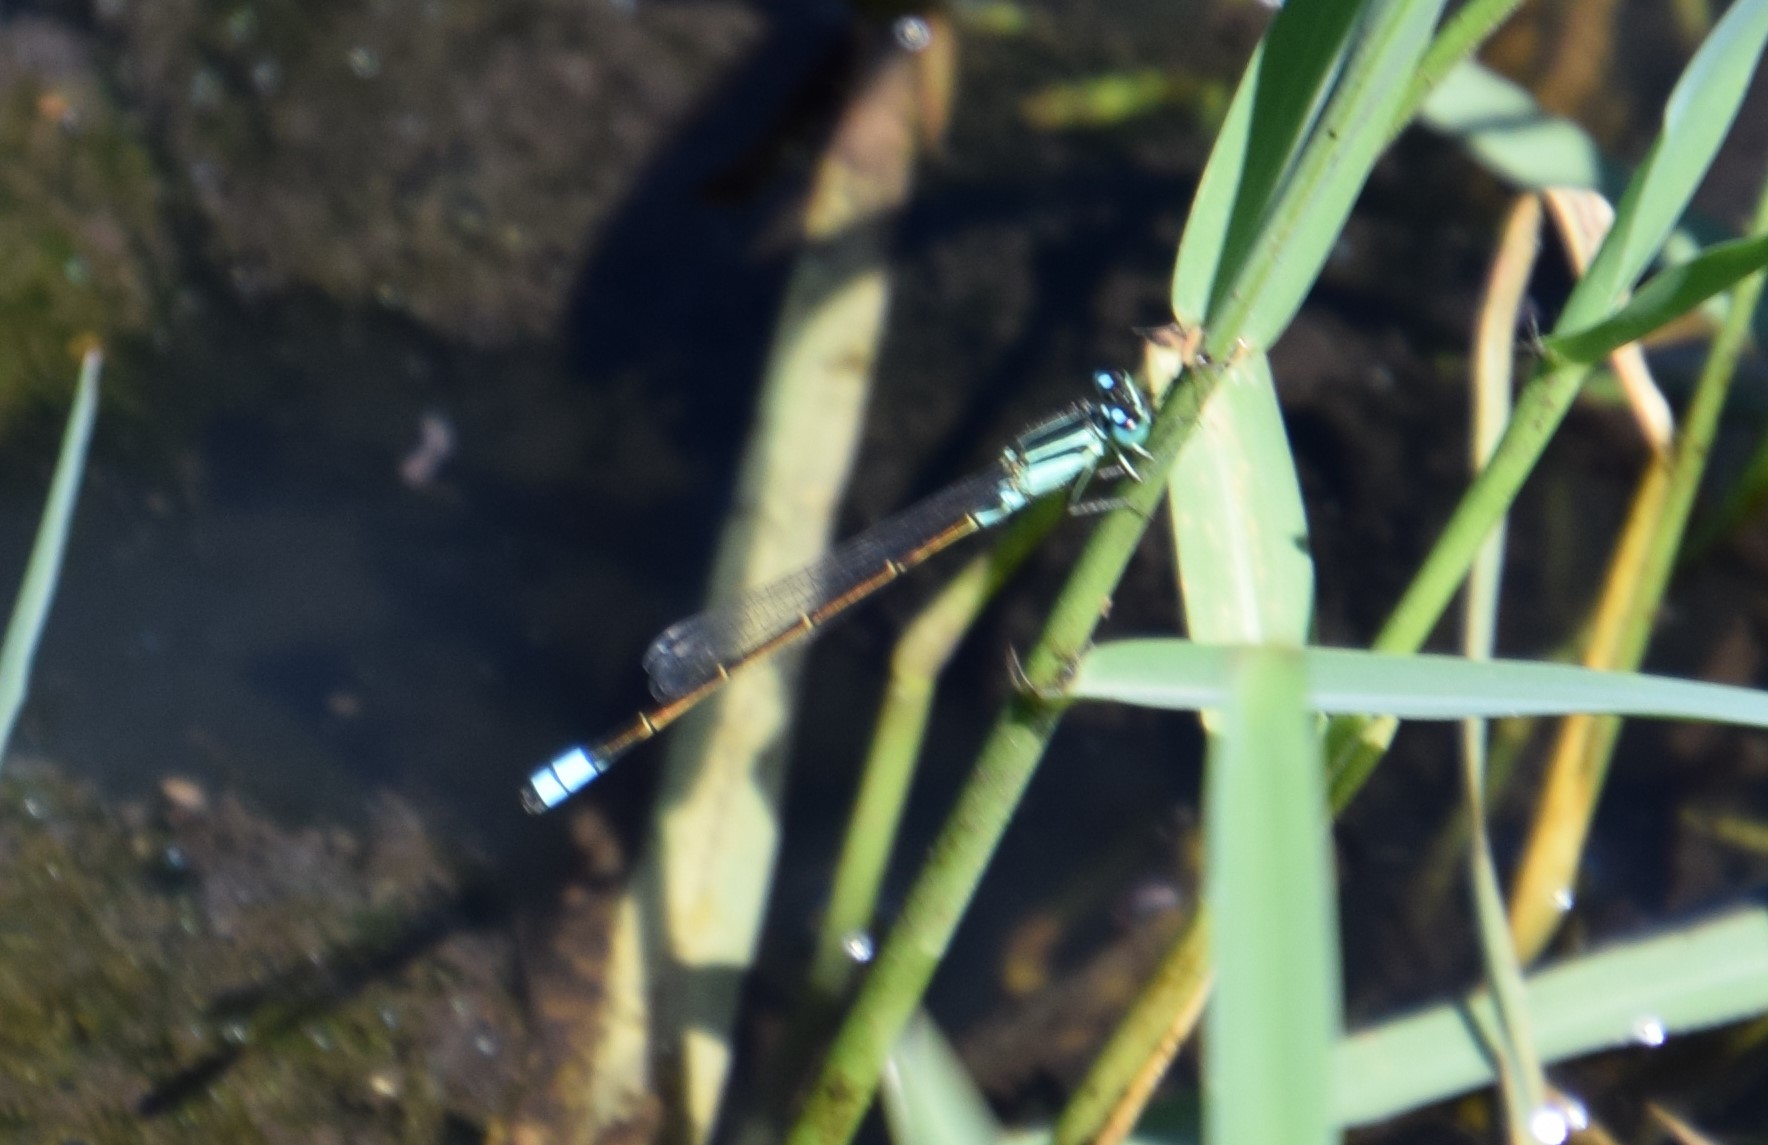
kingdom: Animalia
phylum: Arthropoda
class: Insecta
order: Odonata
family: Coenagrionidae
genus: Ischnura
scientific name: Ischnura heterosticta
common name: Common bluetail
